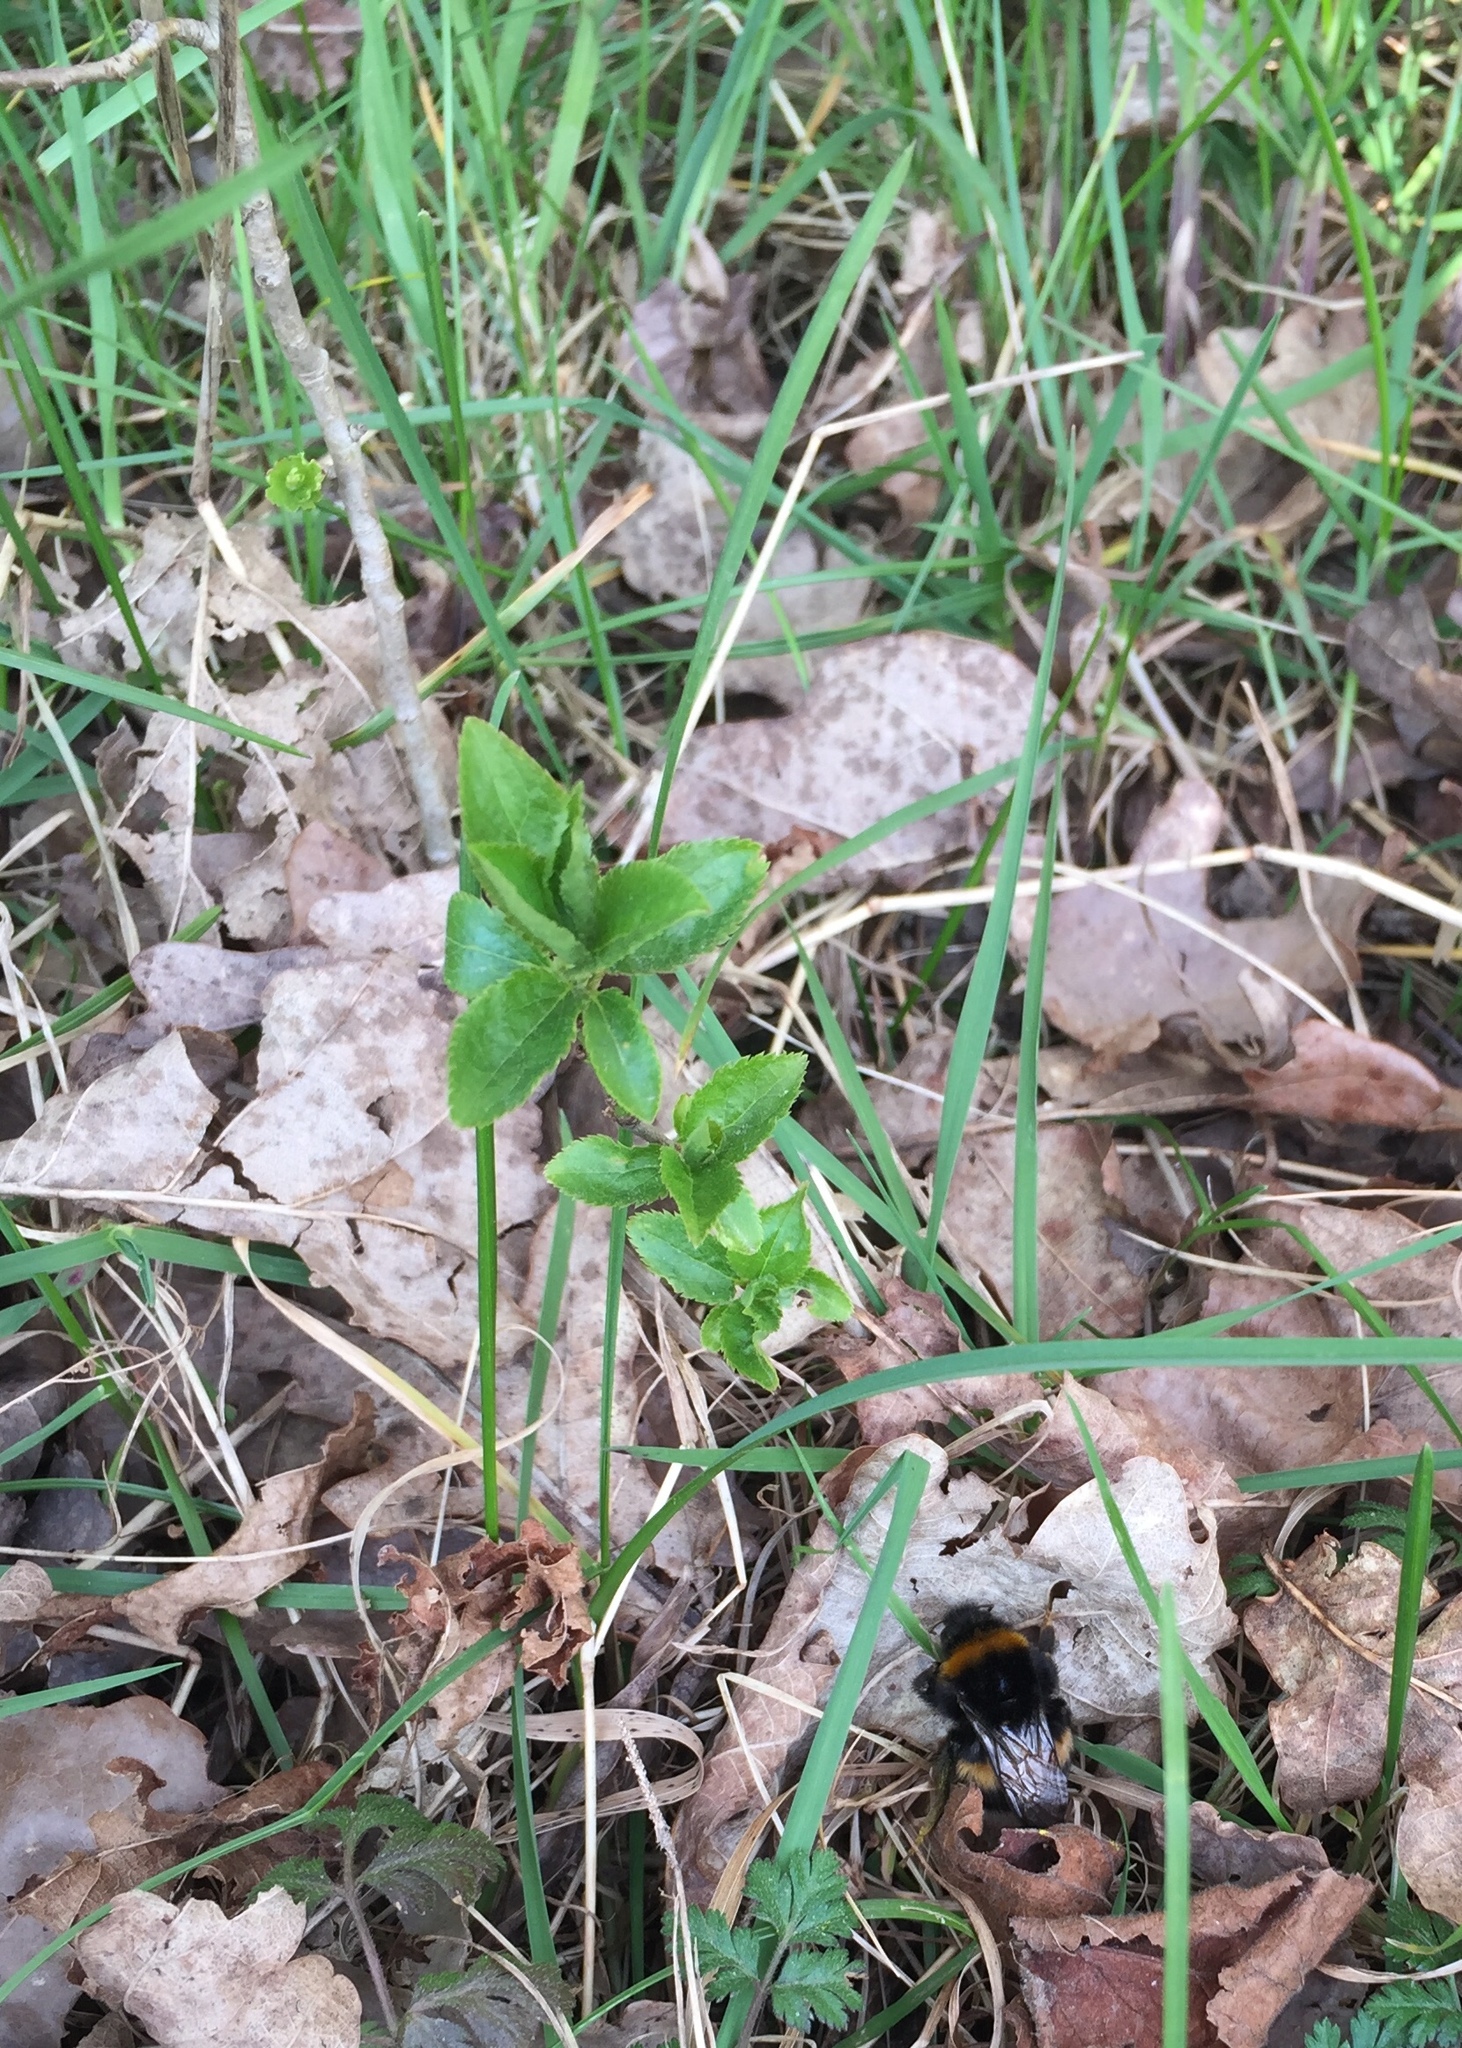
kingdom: Plantae
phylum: Tracheophyta
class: Magnoliopsida
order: Malpighiales
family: Euphorbiaceae
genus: Mercurialis
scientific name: Mercurialis perennis
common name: Dog mercury
